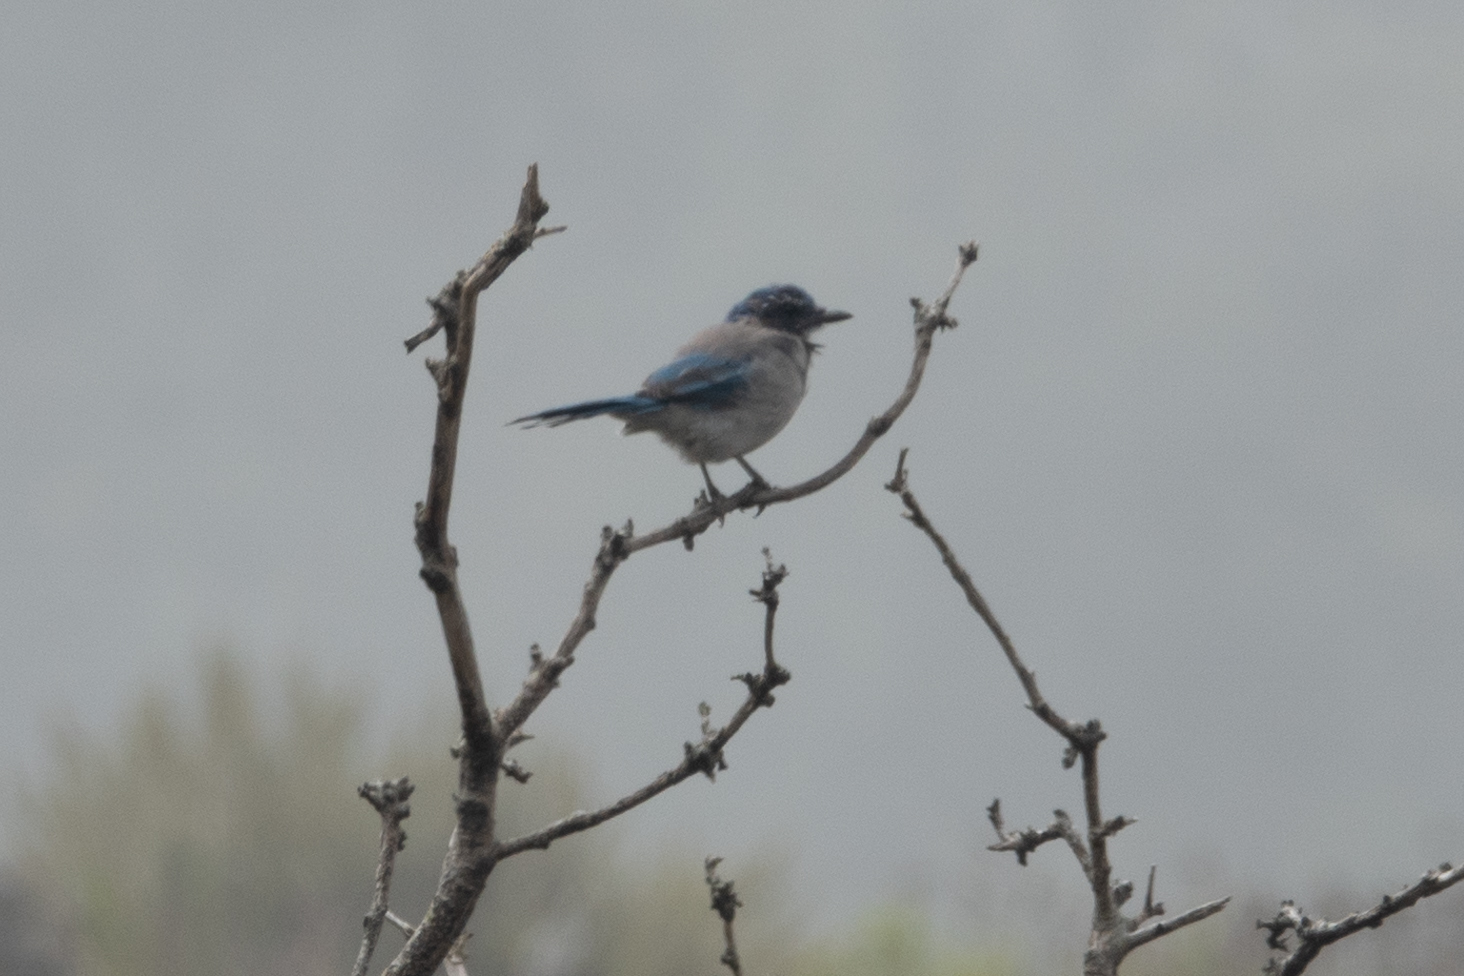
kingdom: Animalia
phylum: Chordata
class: Aves
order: Passeriformes
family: Corvidae
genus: Aphelocoma
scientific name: Aphelocoma californica
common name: California scrub-jay
